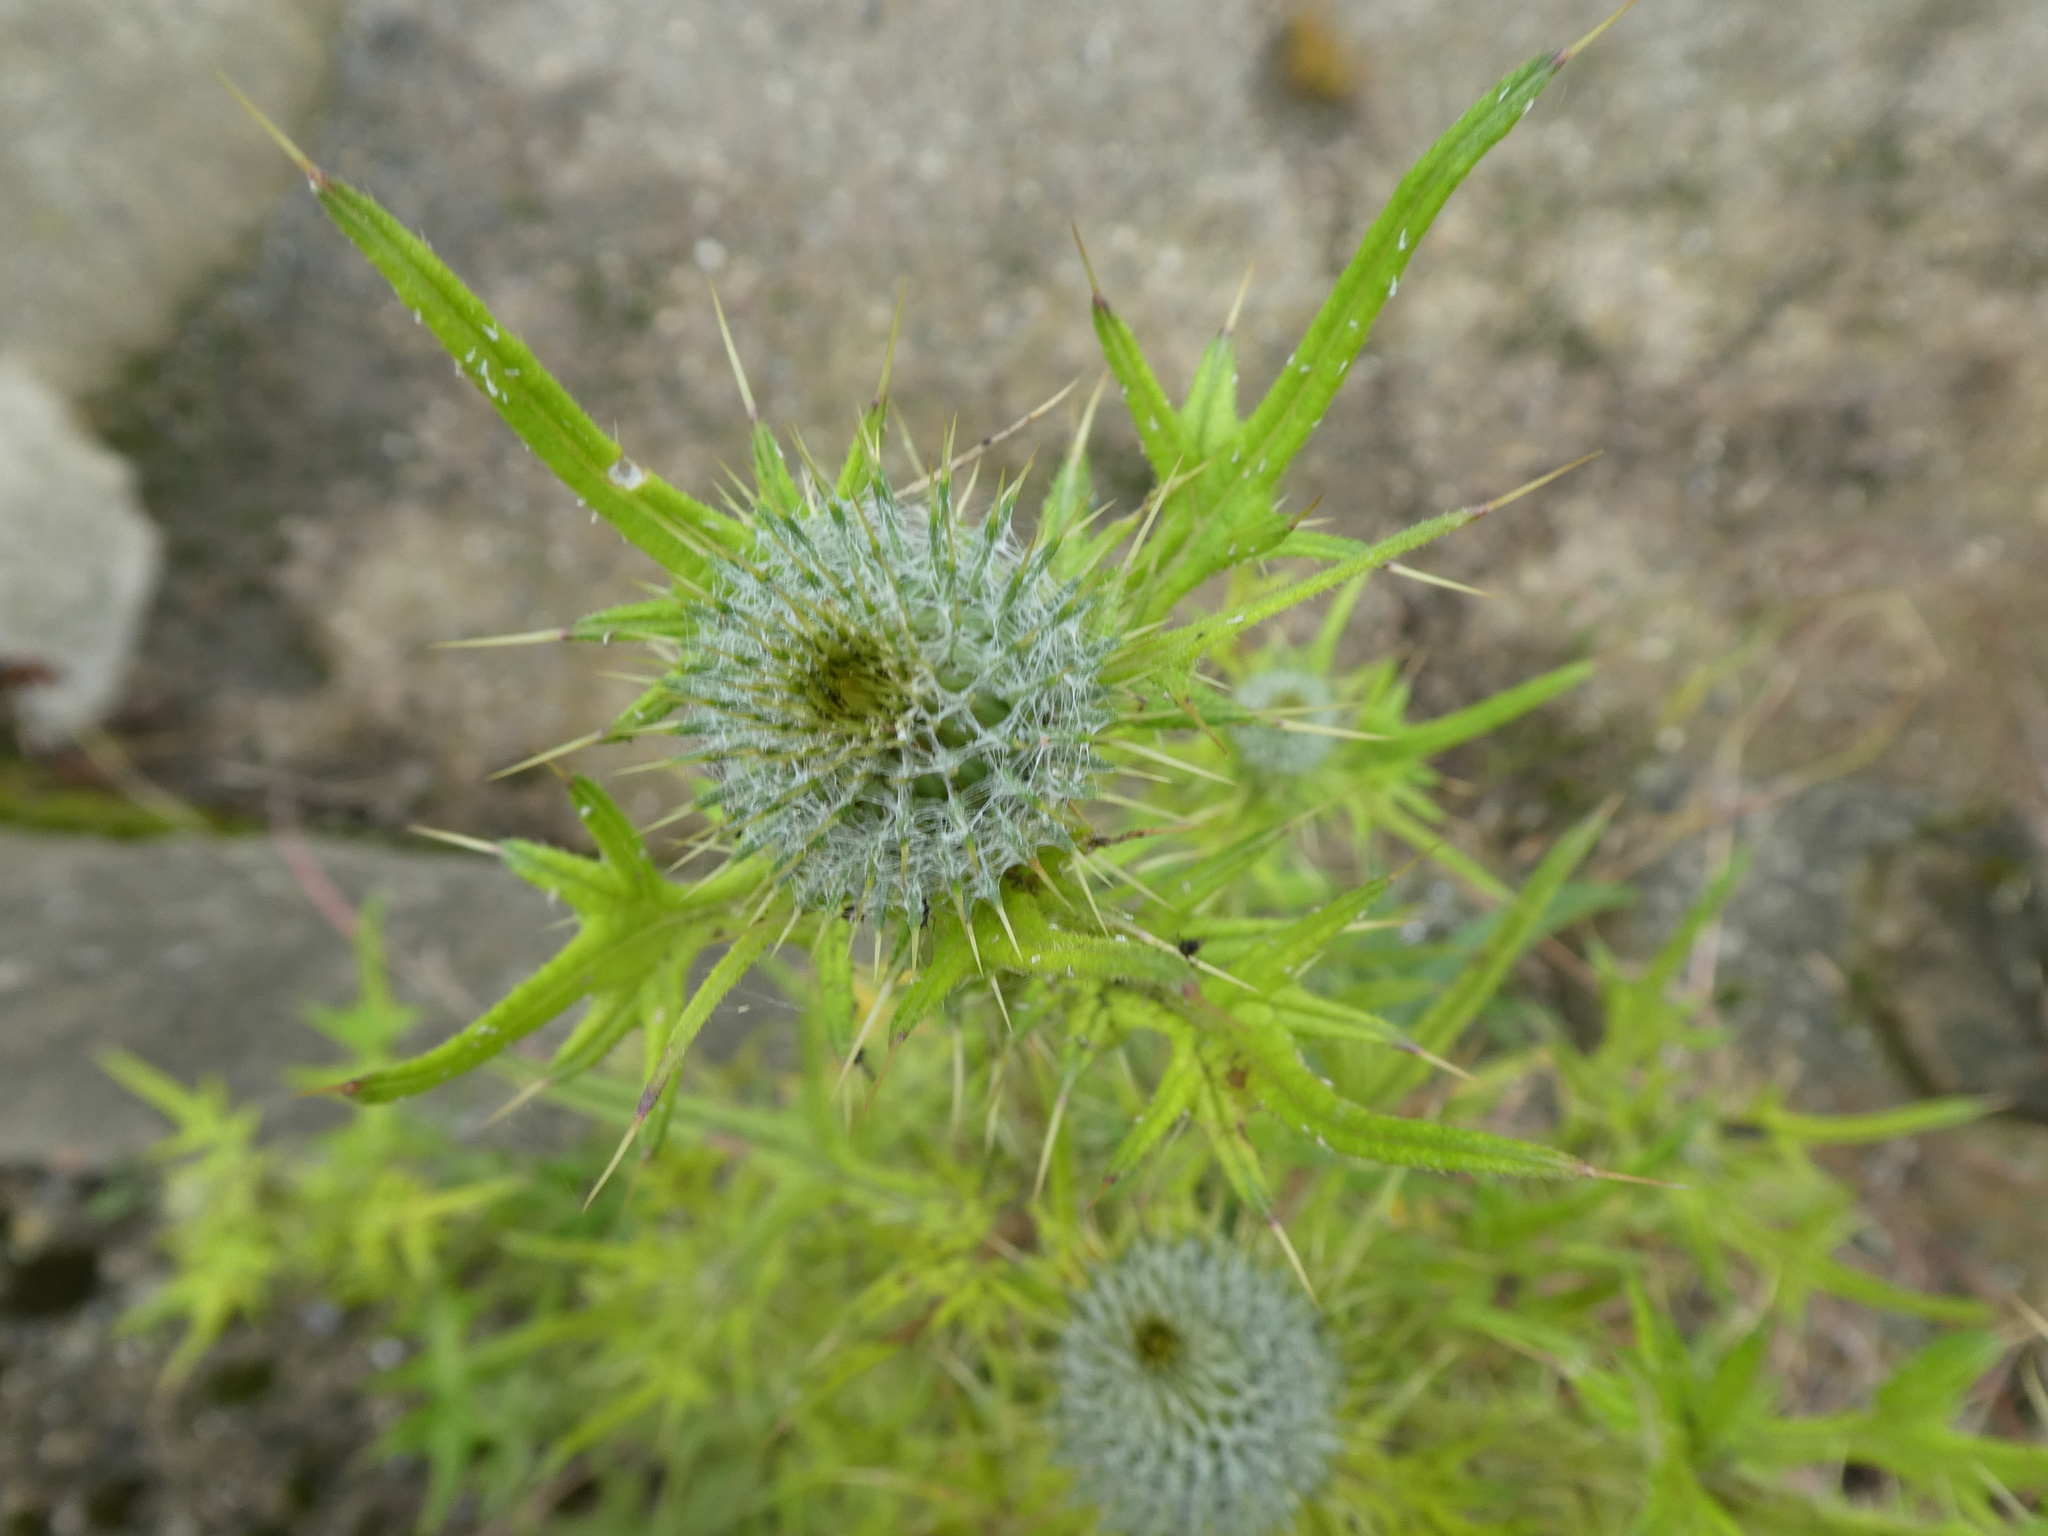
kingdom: Plantae
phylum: Tracheophyta
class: Magnoliopsida
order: Asterales
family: Asteraceae
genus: Cirsium
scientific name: Cirsium vulgare
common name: Bull thistle
